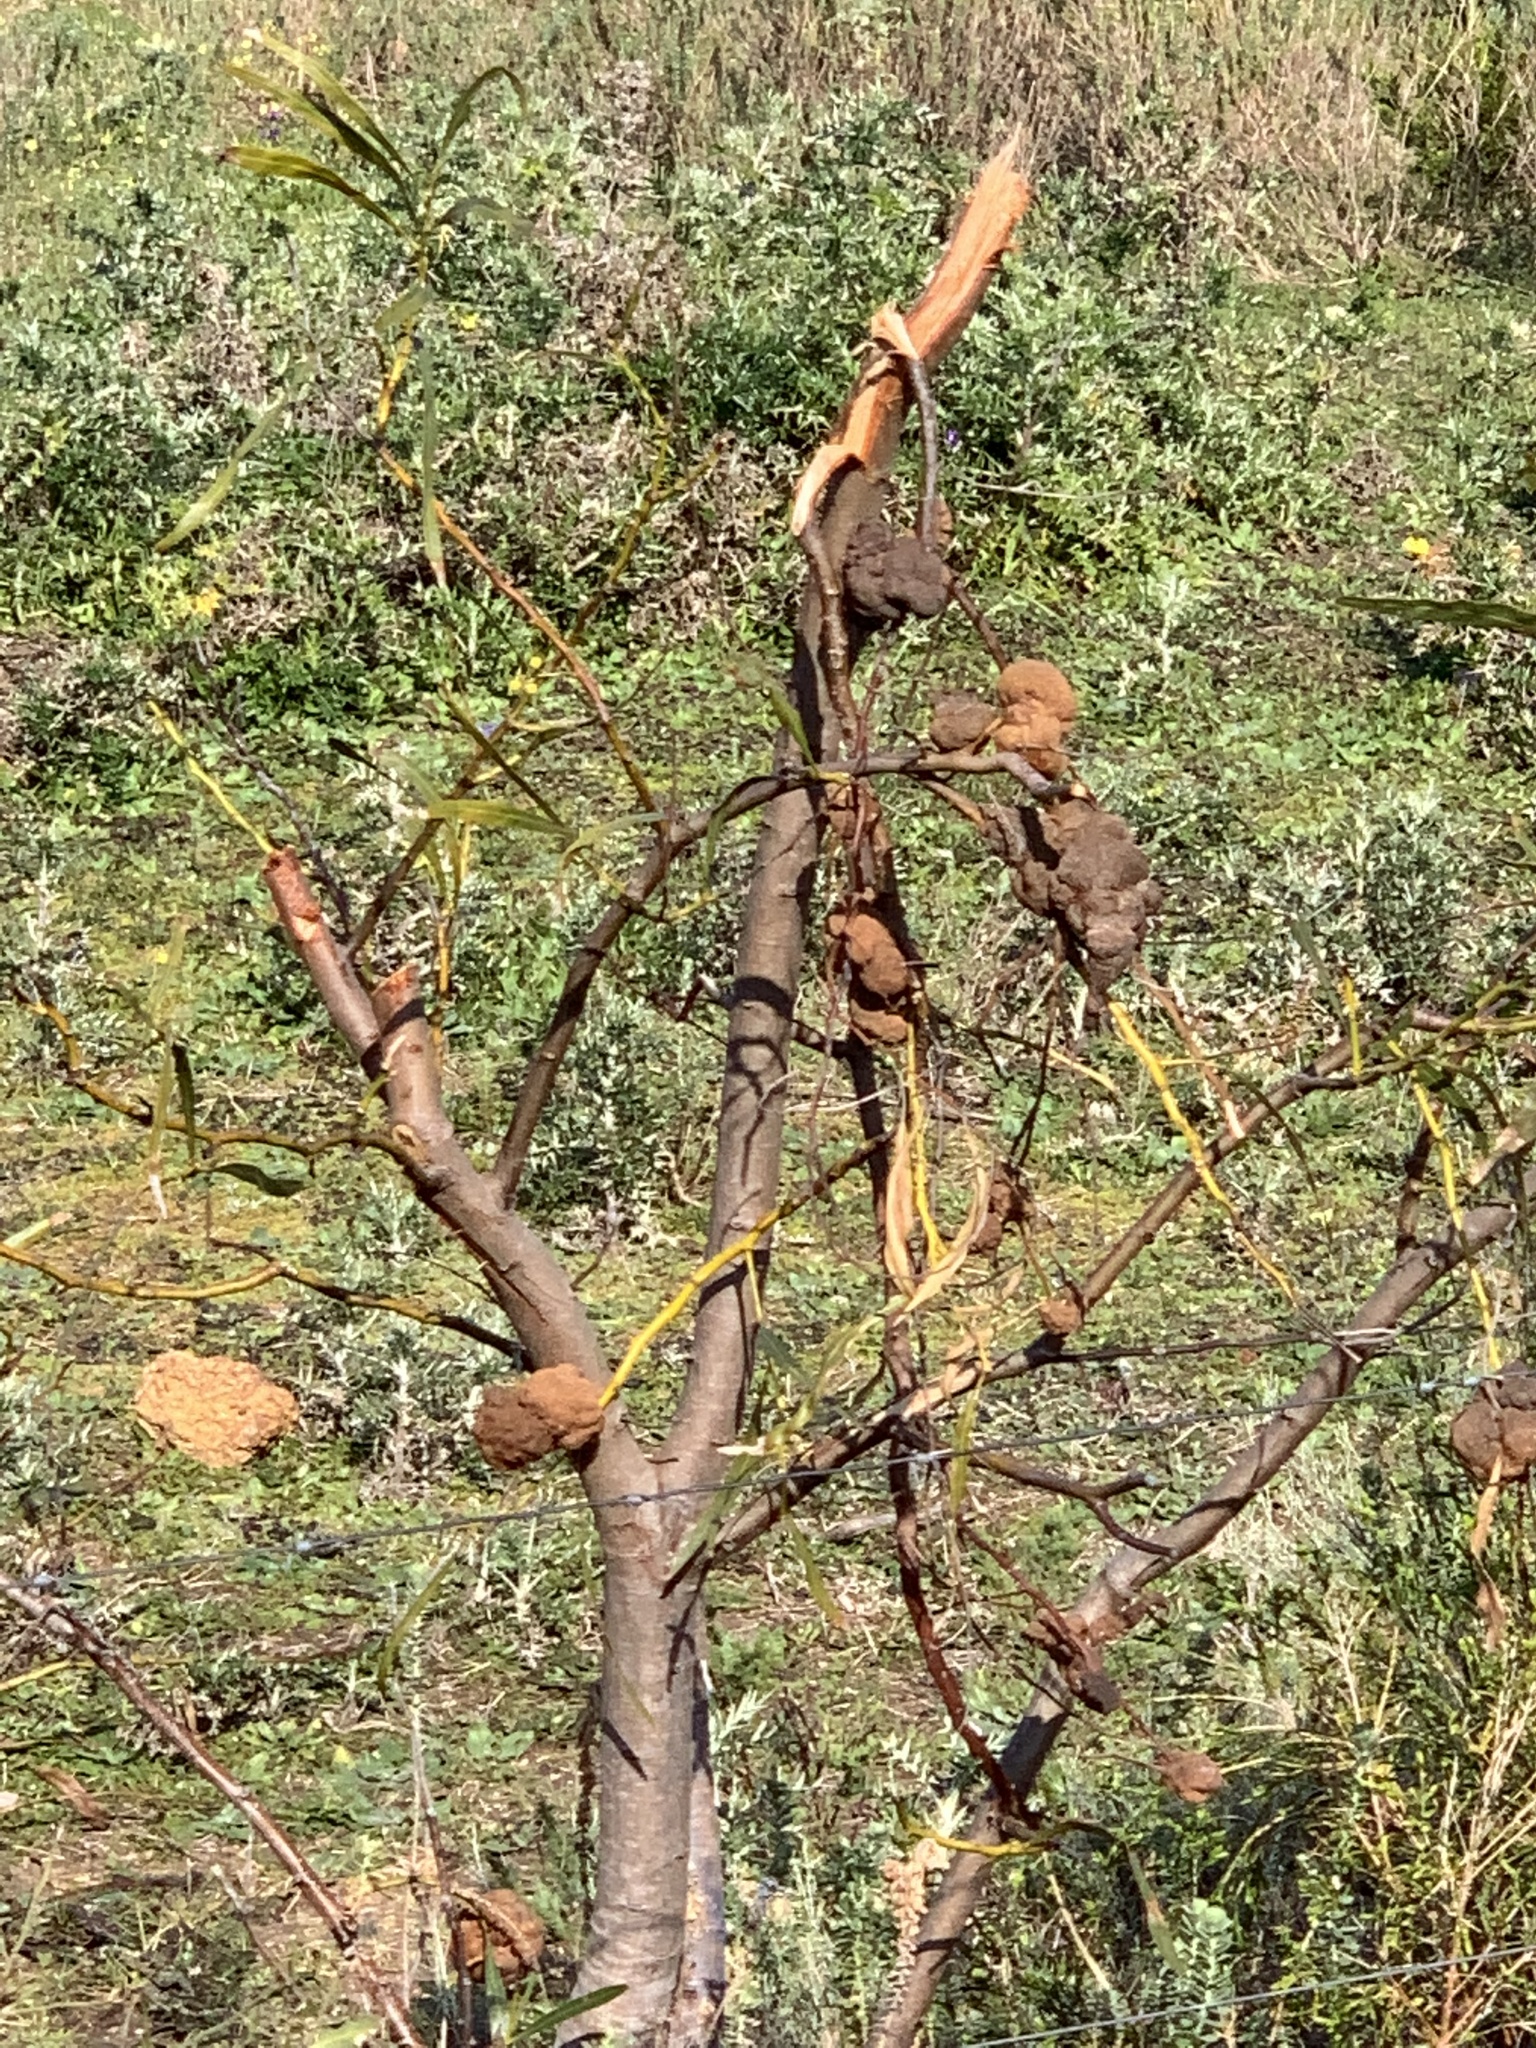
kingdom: Plantae
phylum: Tracheophyta
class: Magnoliopsida
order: Fabales
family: Fabaceae
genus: Acacia
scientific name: Acacia saligna
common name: Orange wattle
